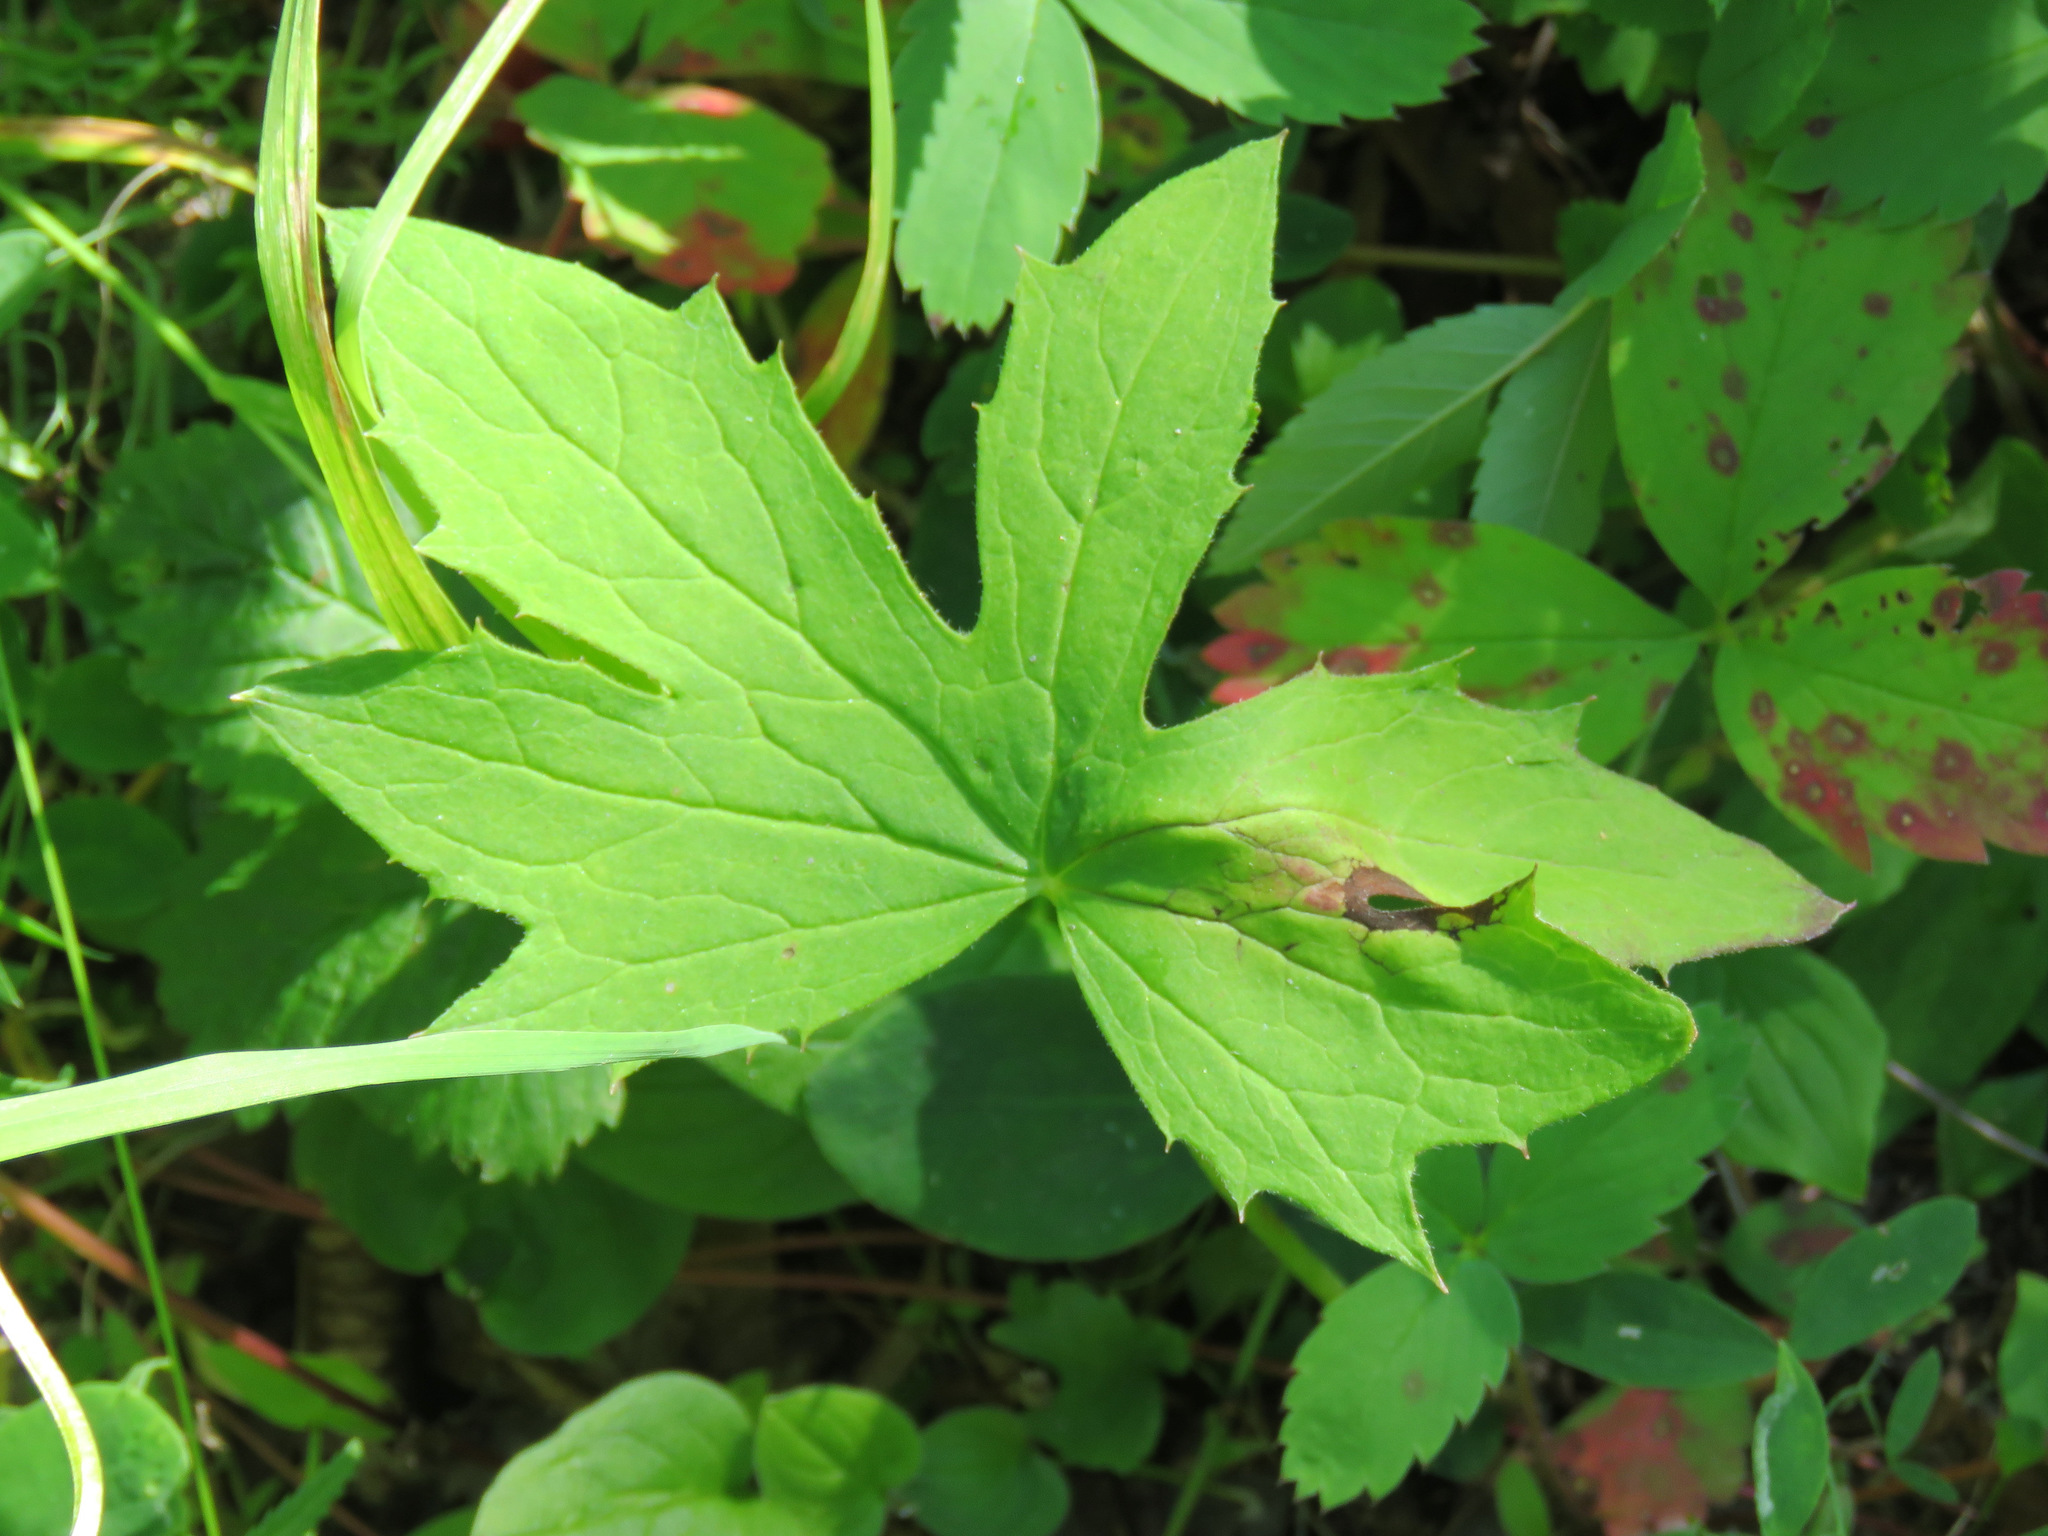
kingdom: Plantae
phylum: Tracheophyta
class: Magnoliopsida
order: Asterales
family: Asteraceae
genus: Petasites
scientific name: Petasites frigidus
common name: Arctic butterbur
